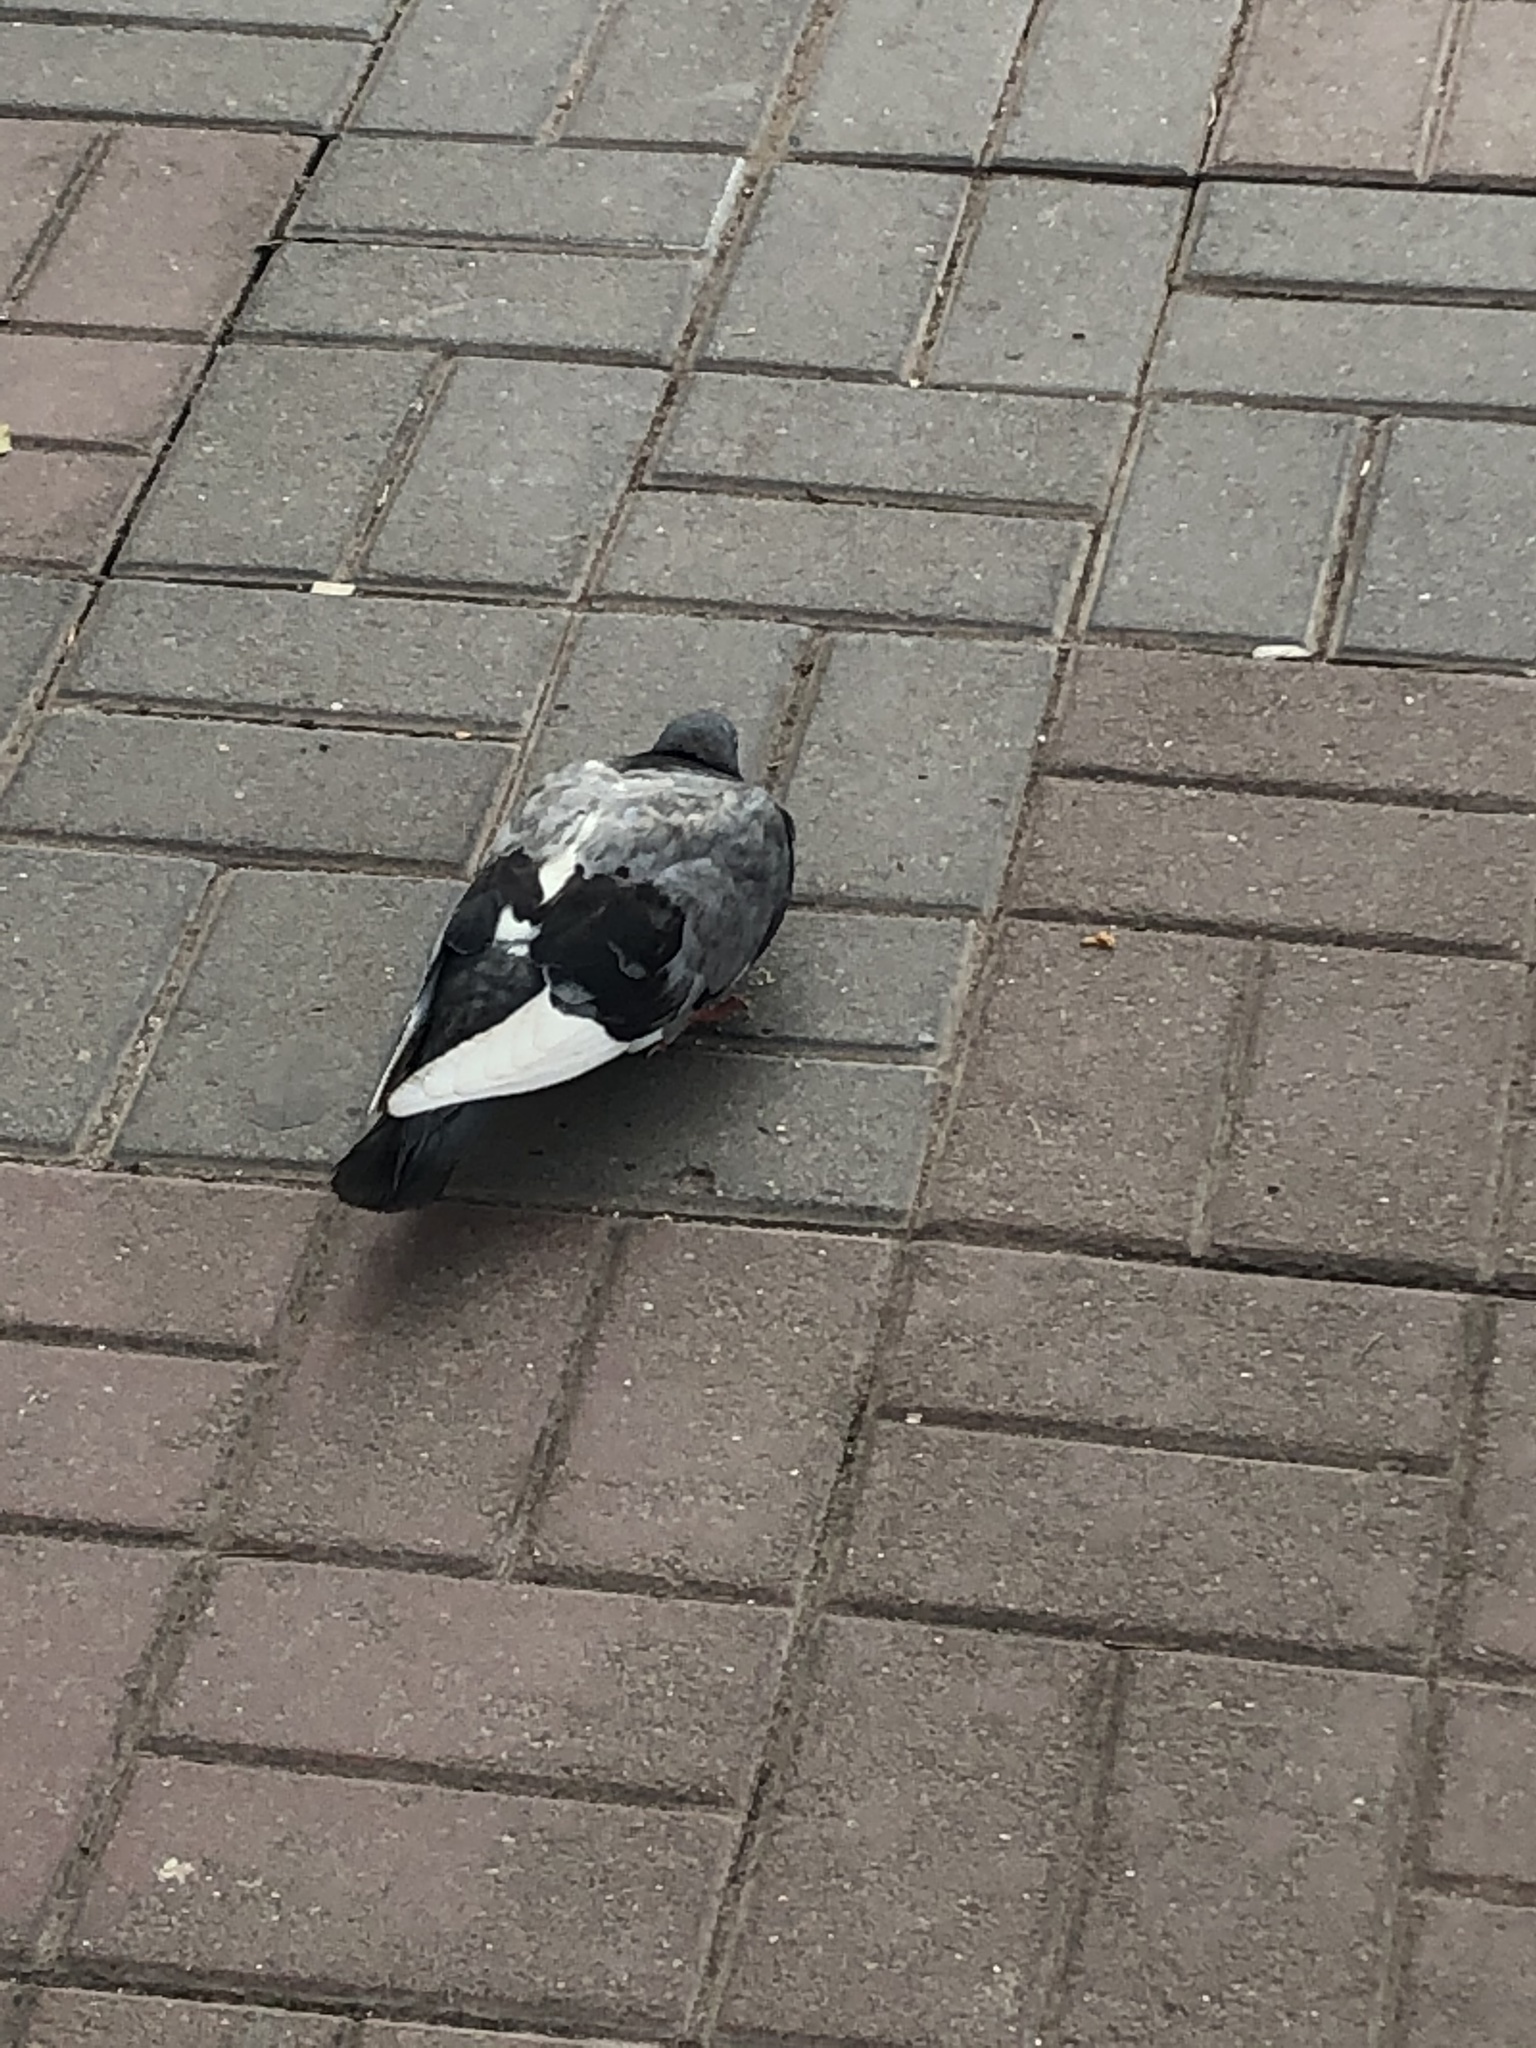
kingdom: Animalia
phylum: Chordata
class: Aves
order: Columbiformes
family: Columbidae
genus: Columba
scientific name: Columba livia
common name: Rock pigeon
